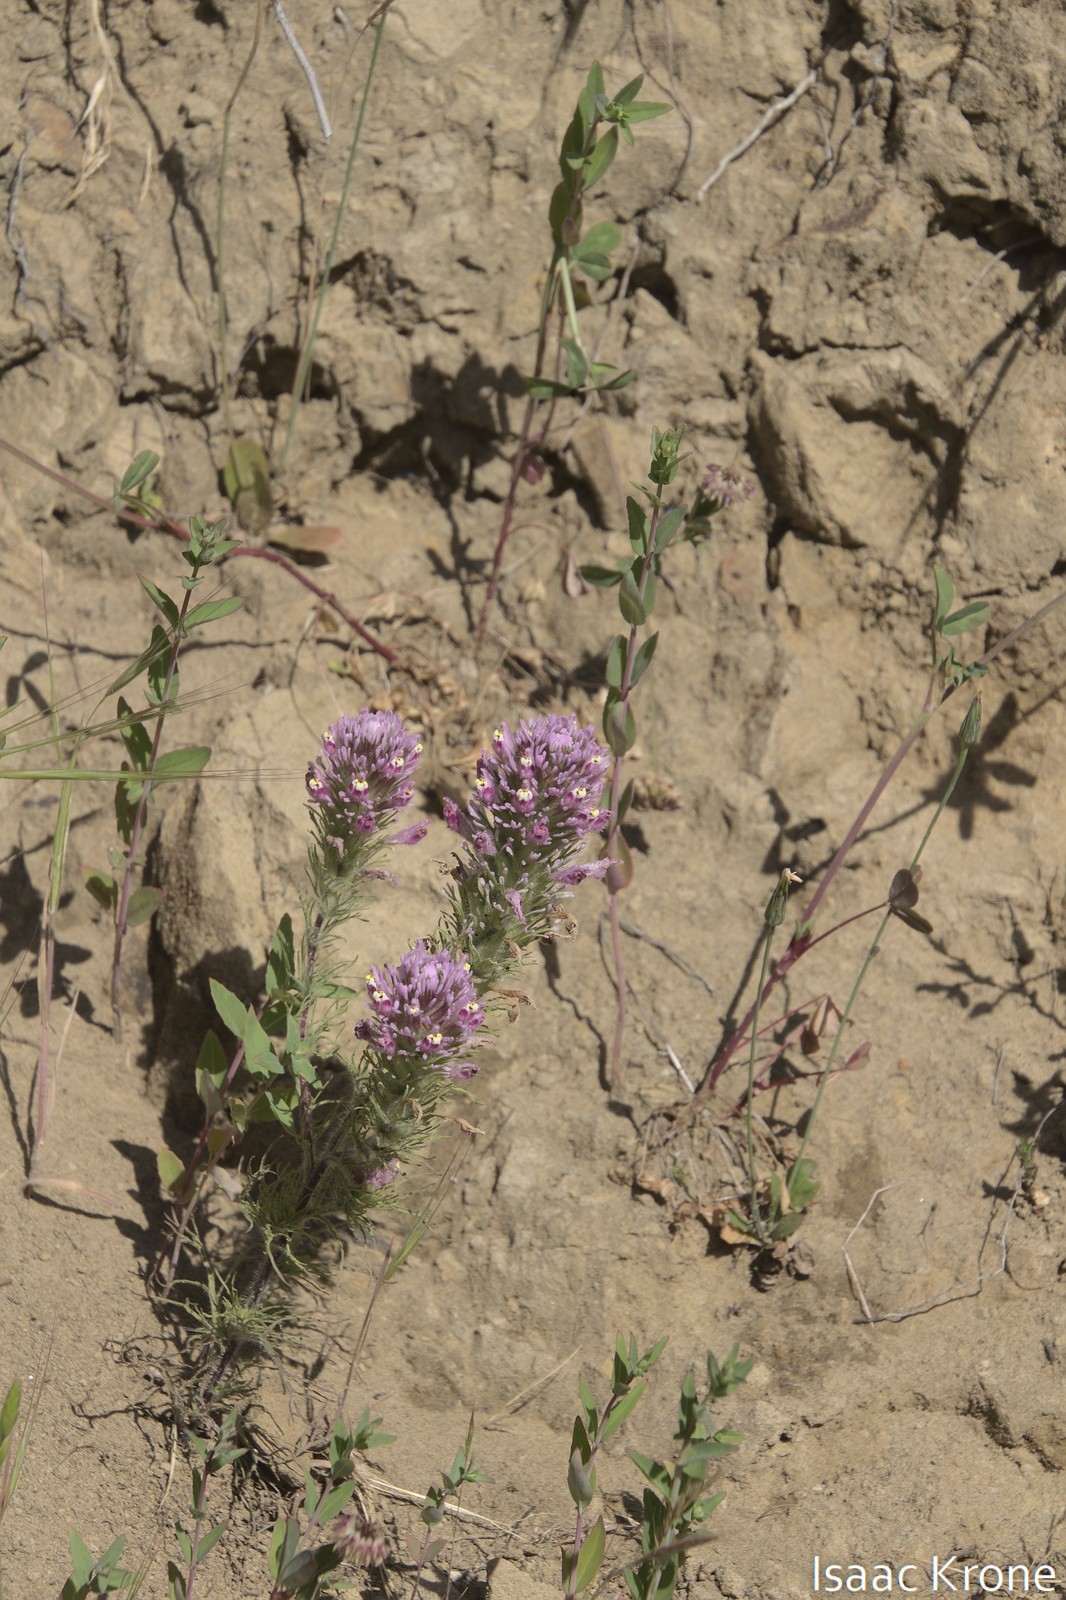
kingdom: Plantae
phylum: Tracheophyta
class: Magnoliopsida
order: Lamiales
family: Orobanchaceae
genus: Castilleja
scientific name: Castilleja exserta
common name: Purple owl-clover
